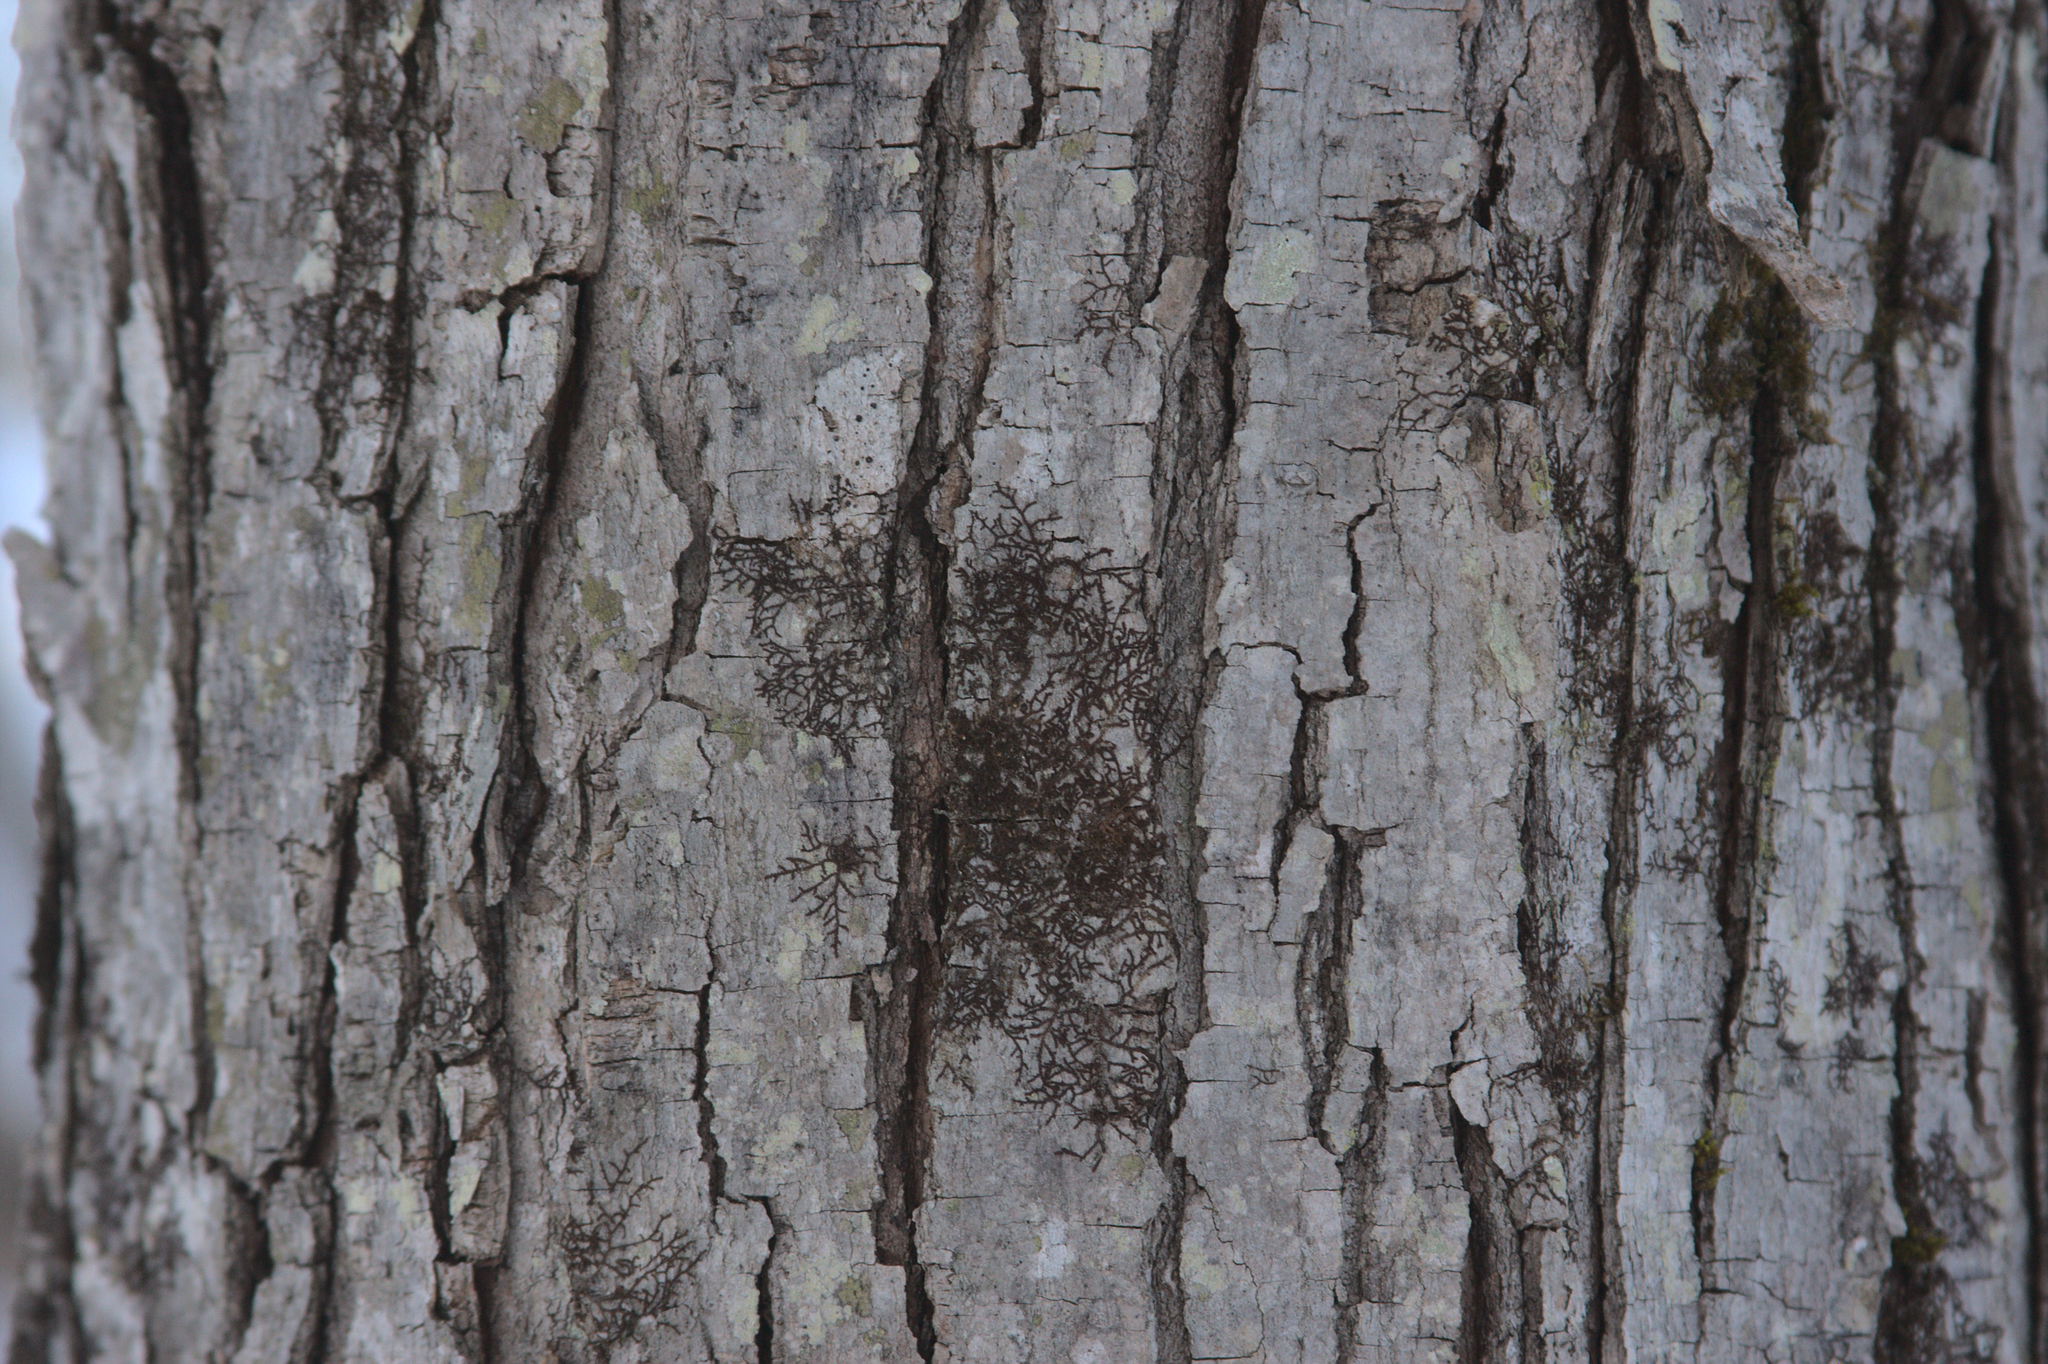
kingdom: Plantae
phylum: Marchantiophyta
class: Jungermanniopsida
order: Porellales
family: Frullaniaceae
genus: Frullania
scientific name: Frullania eboracensis
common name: New york scalewort
